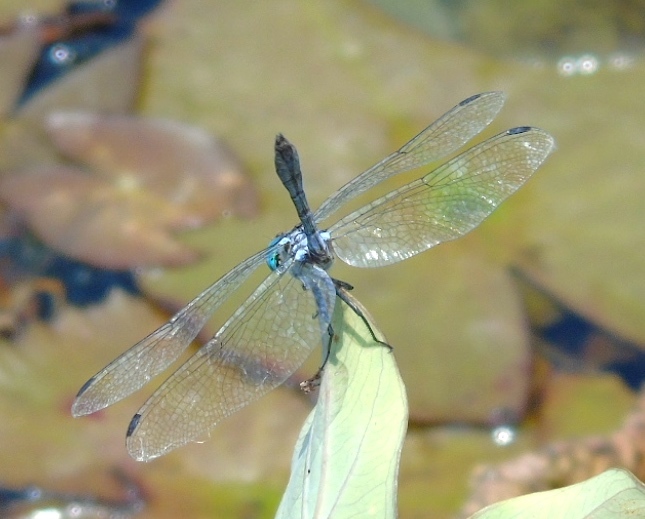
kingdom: Animalia
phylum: Arthropoda
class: Insecta
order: Odonata
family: Libellulidae
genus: Micrathyria
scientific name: Micrathyria
